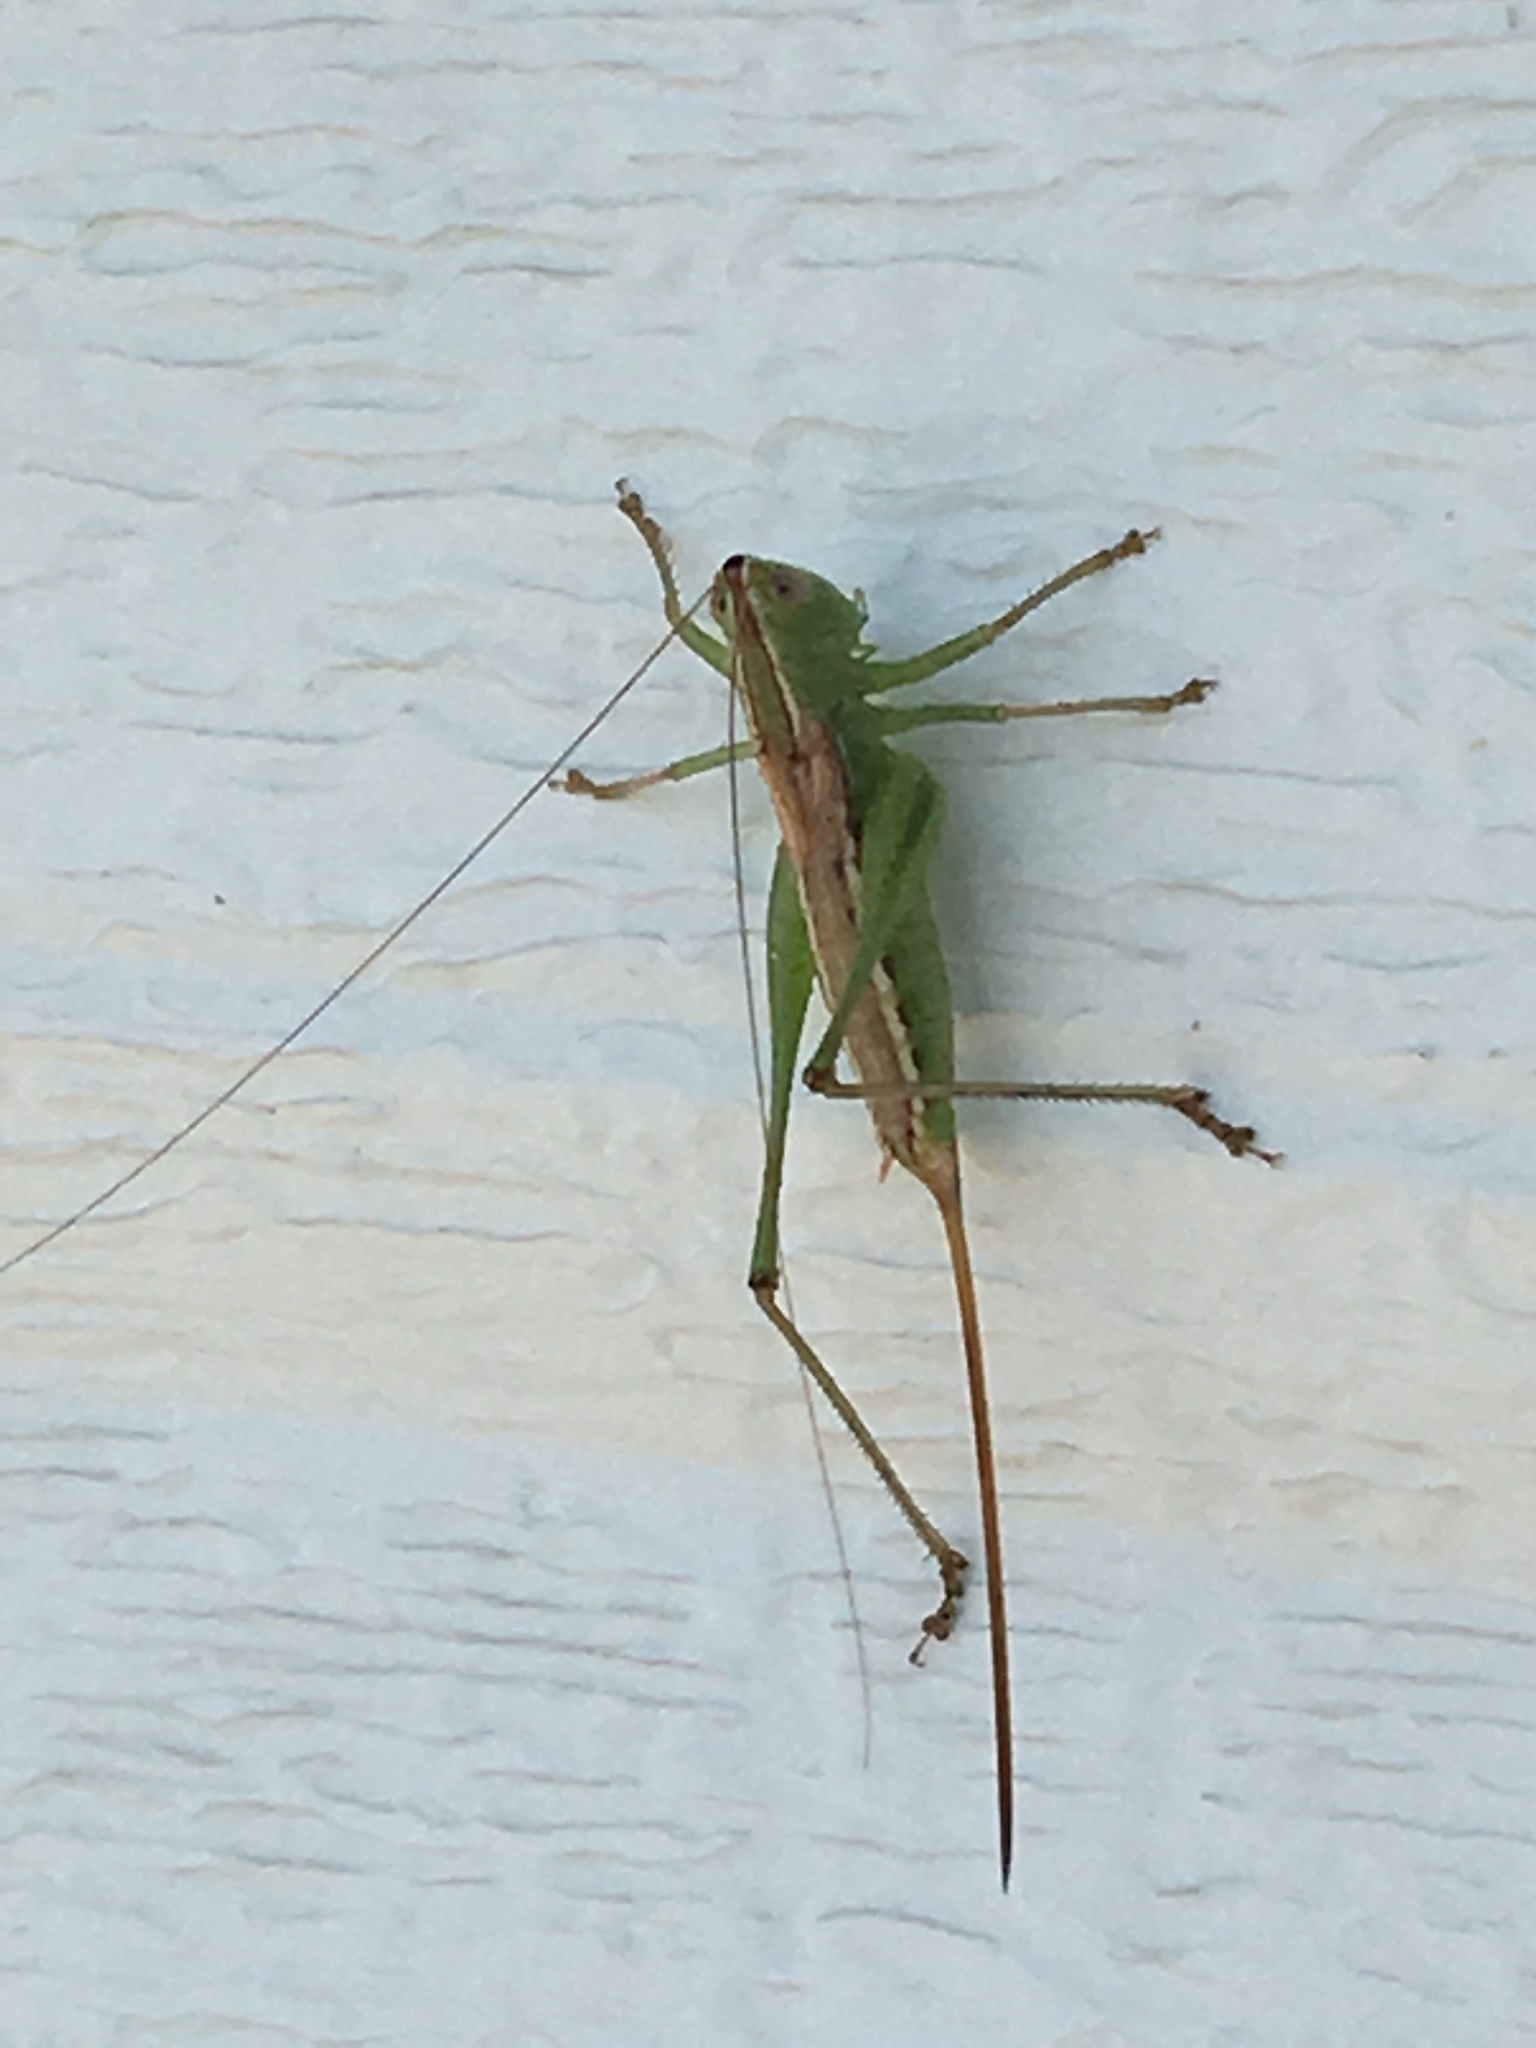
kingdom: Animalia
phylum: Arthropoda
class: Insecta
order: Orthoptera
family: Tettigoniidae
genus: Conocephalus
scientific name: Conocephalus strictus
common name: Straight-lanced katydid
